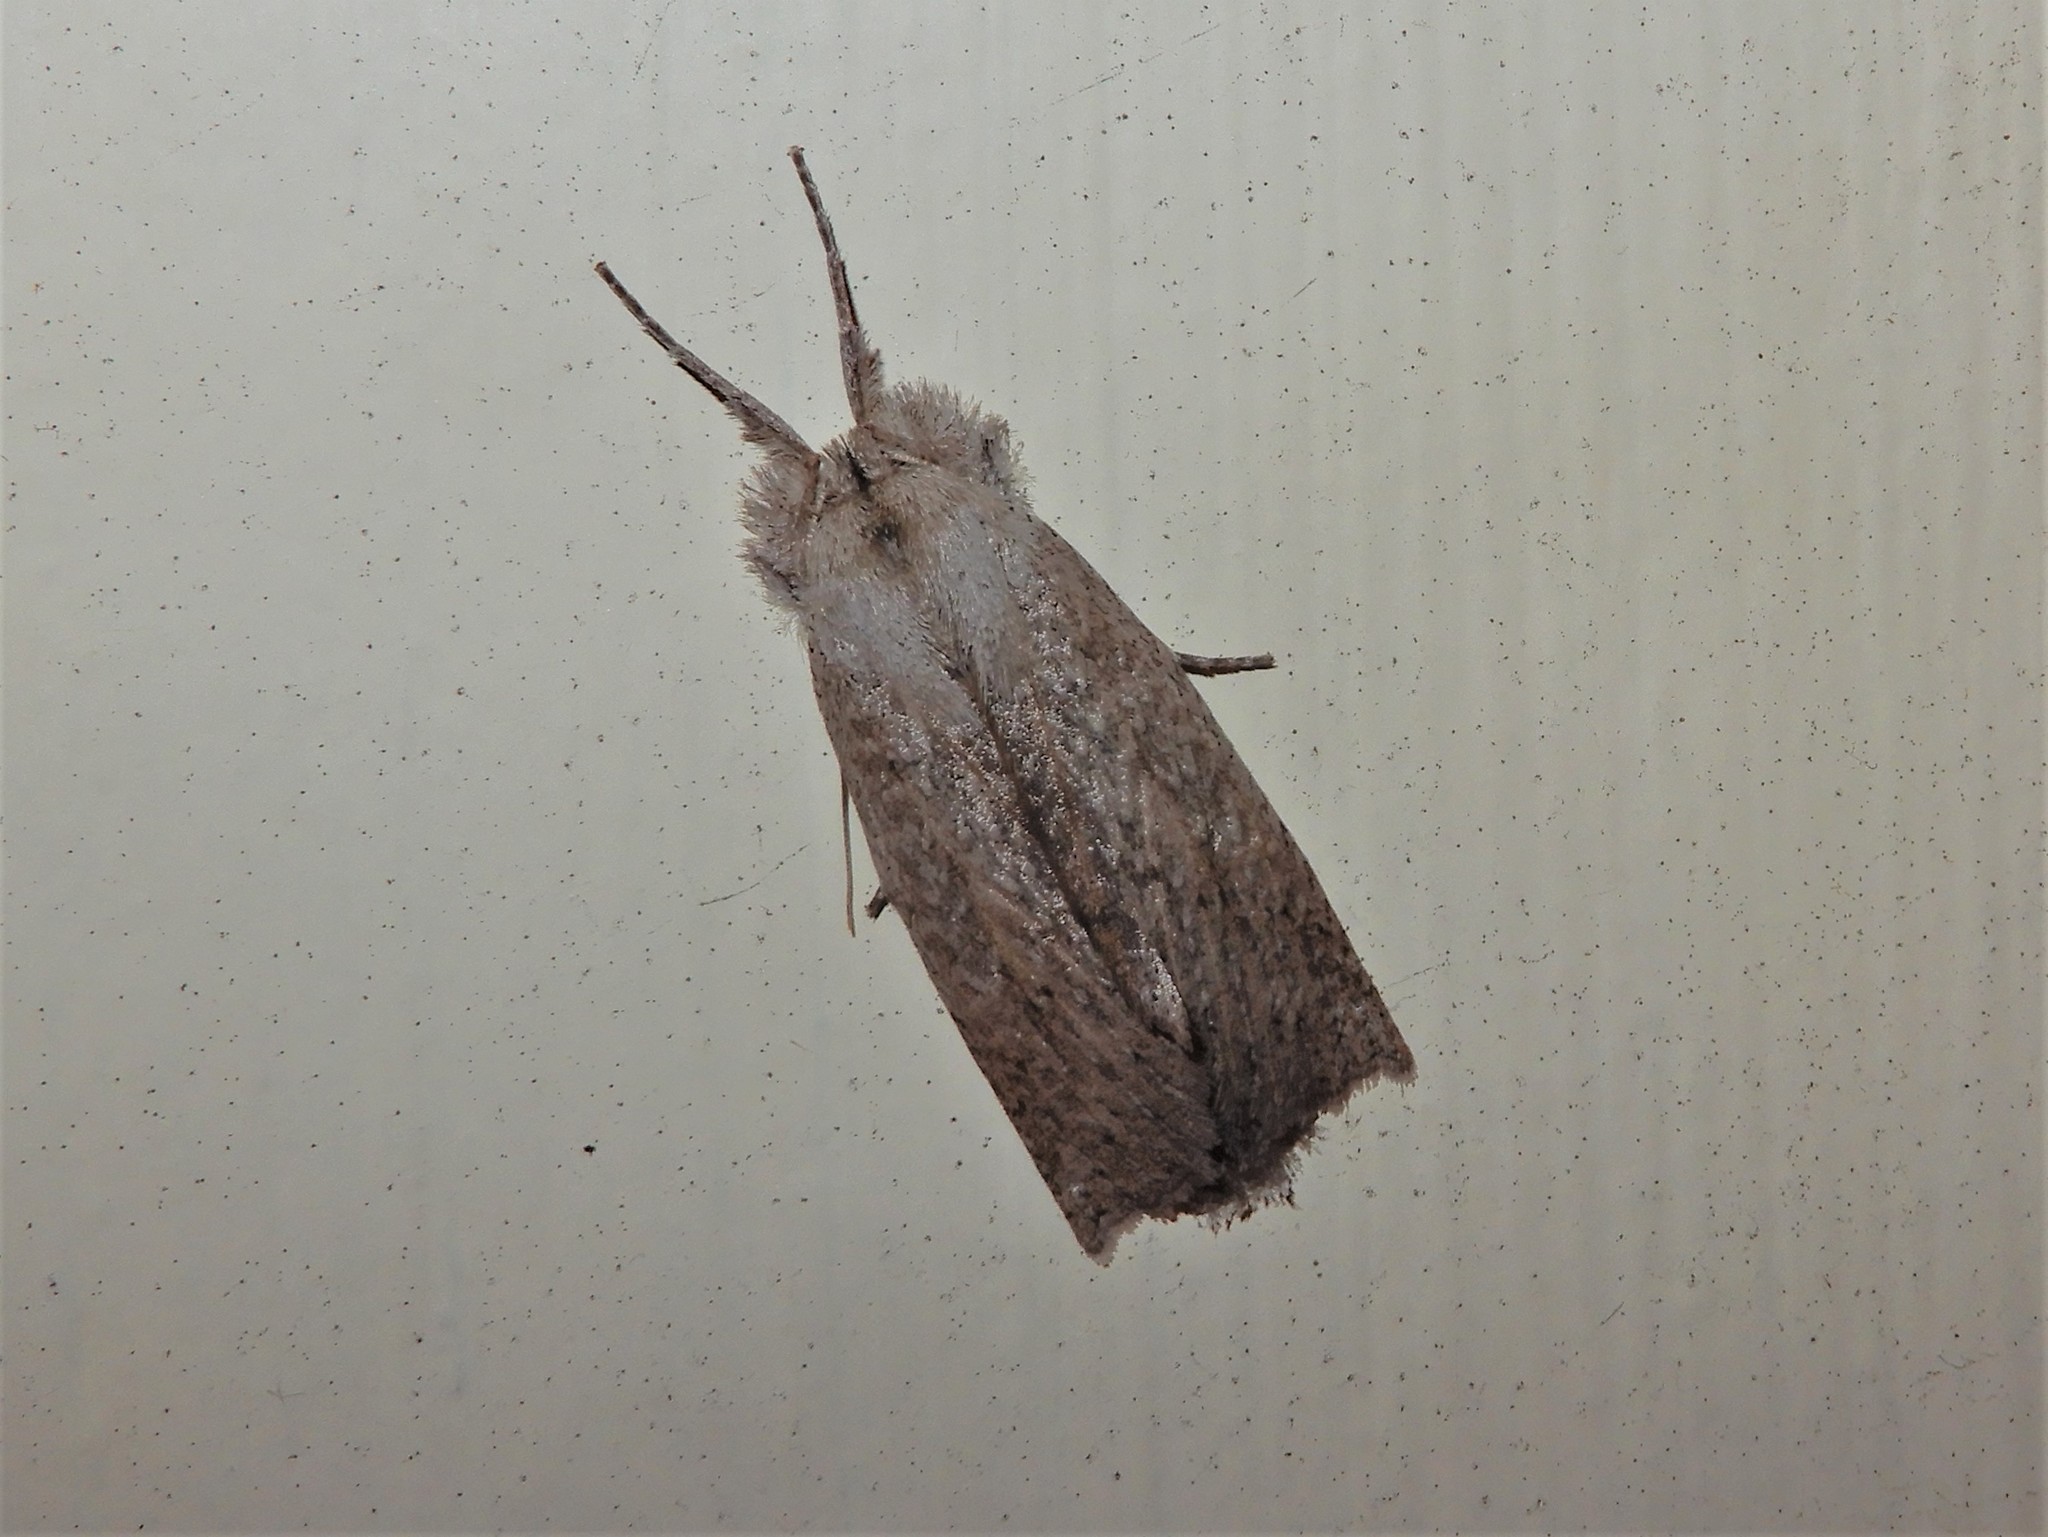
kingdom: Animalia
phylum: Arthropoda
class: Insecta
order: Lepidoptera
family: Geometridae
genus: Declana
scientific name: Declana leptomera
